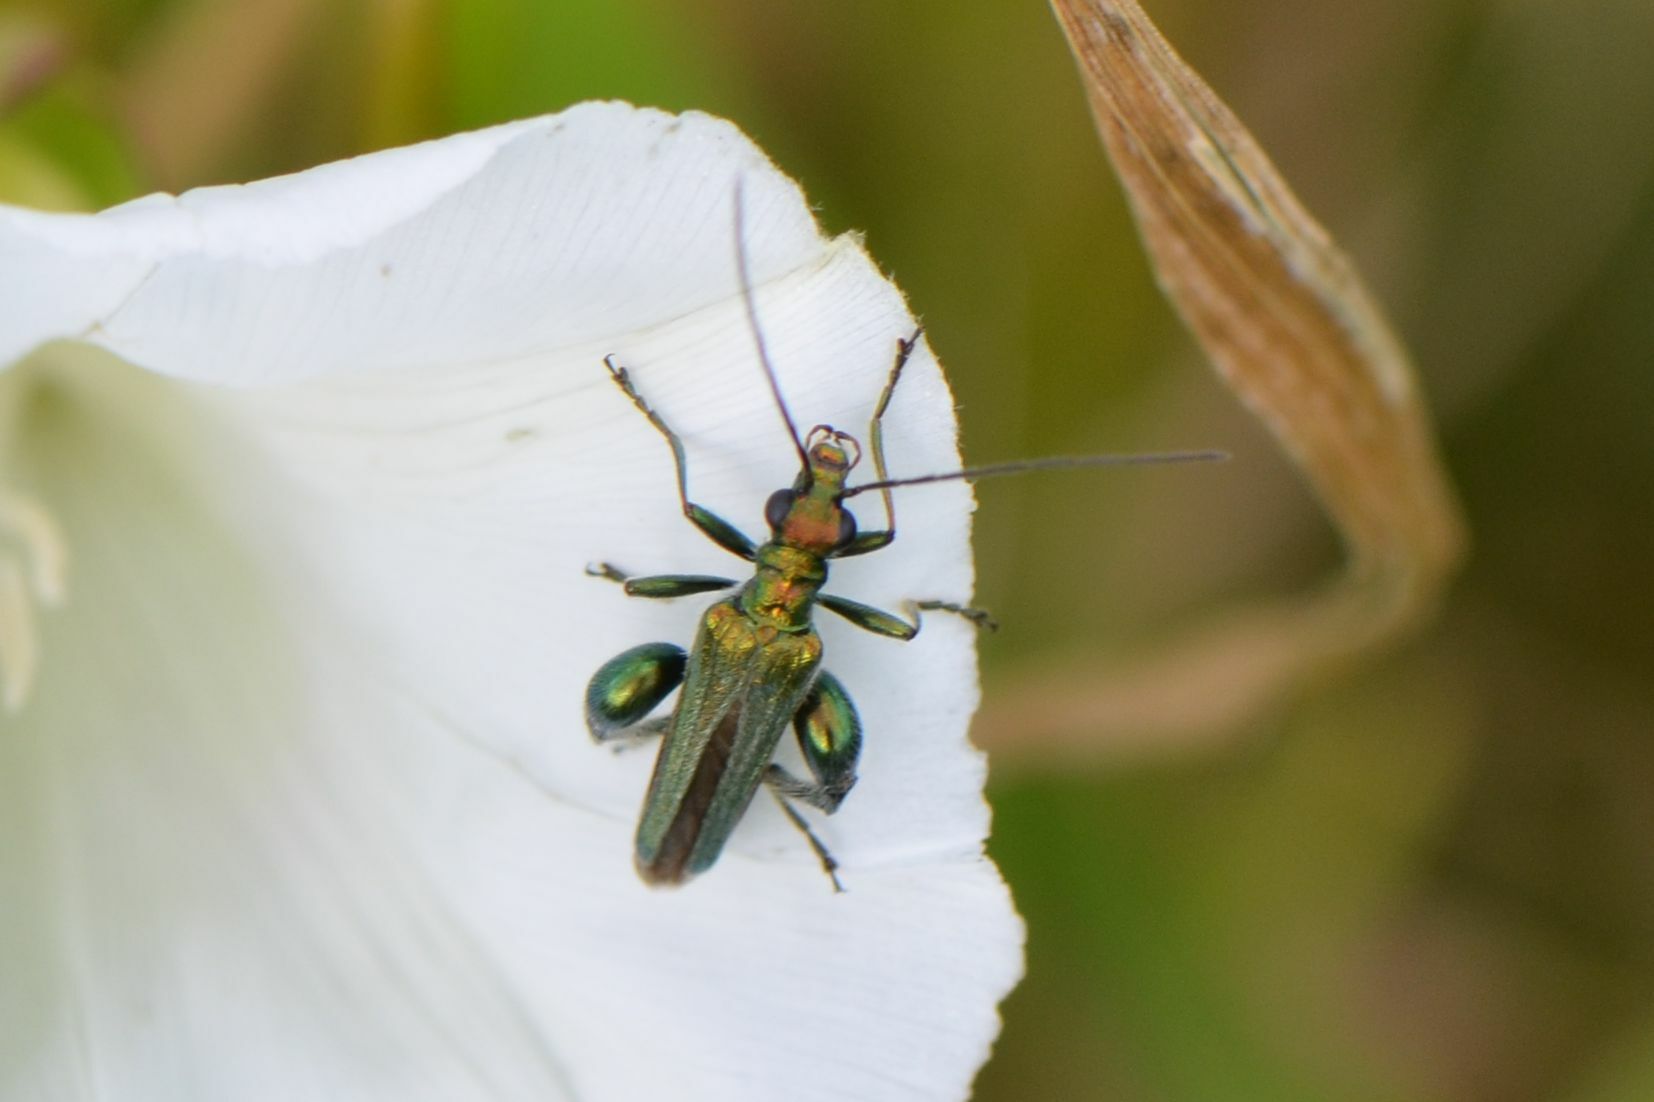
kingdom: Animalia
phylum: Arthropoda
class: Insecta
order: Coleoptera
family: Oedemeridae
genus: Oedemera
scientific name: Oedemera nobilis
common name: Swollen-thighed beetle
